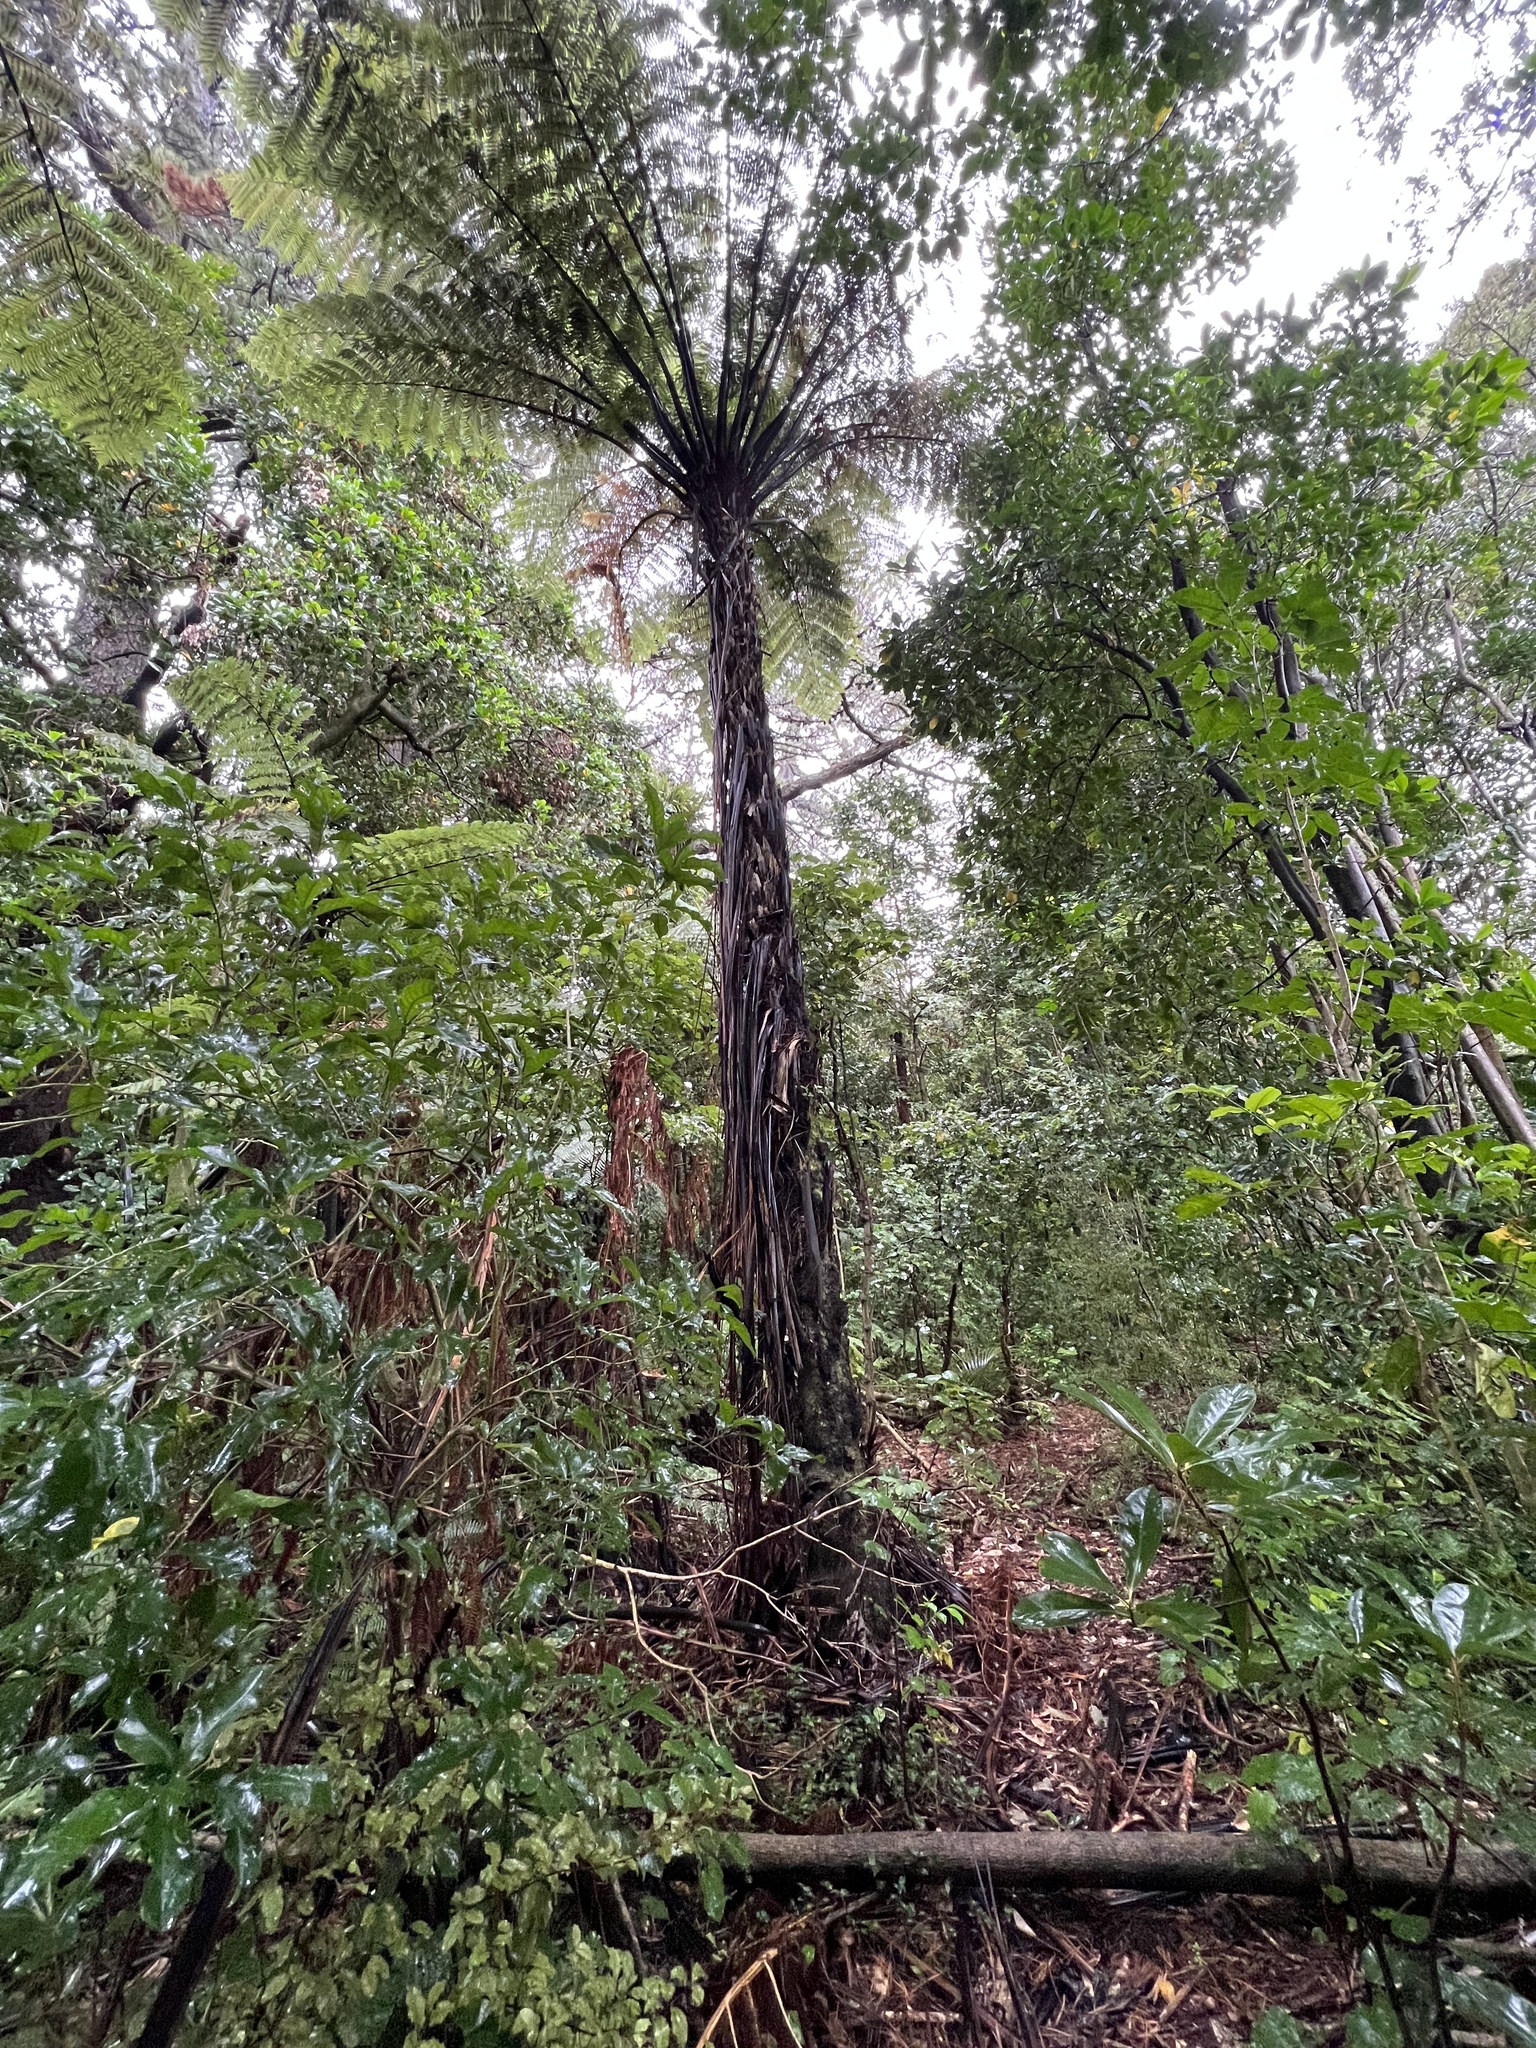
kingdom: Plantae
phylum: Tracheophyta
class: Polypodiopsida
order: Cyatheales
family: Cyatheaceae
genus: Sphaeropteris
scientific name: Sphaeropteris medullaris
